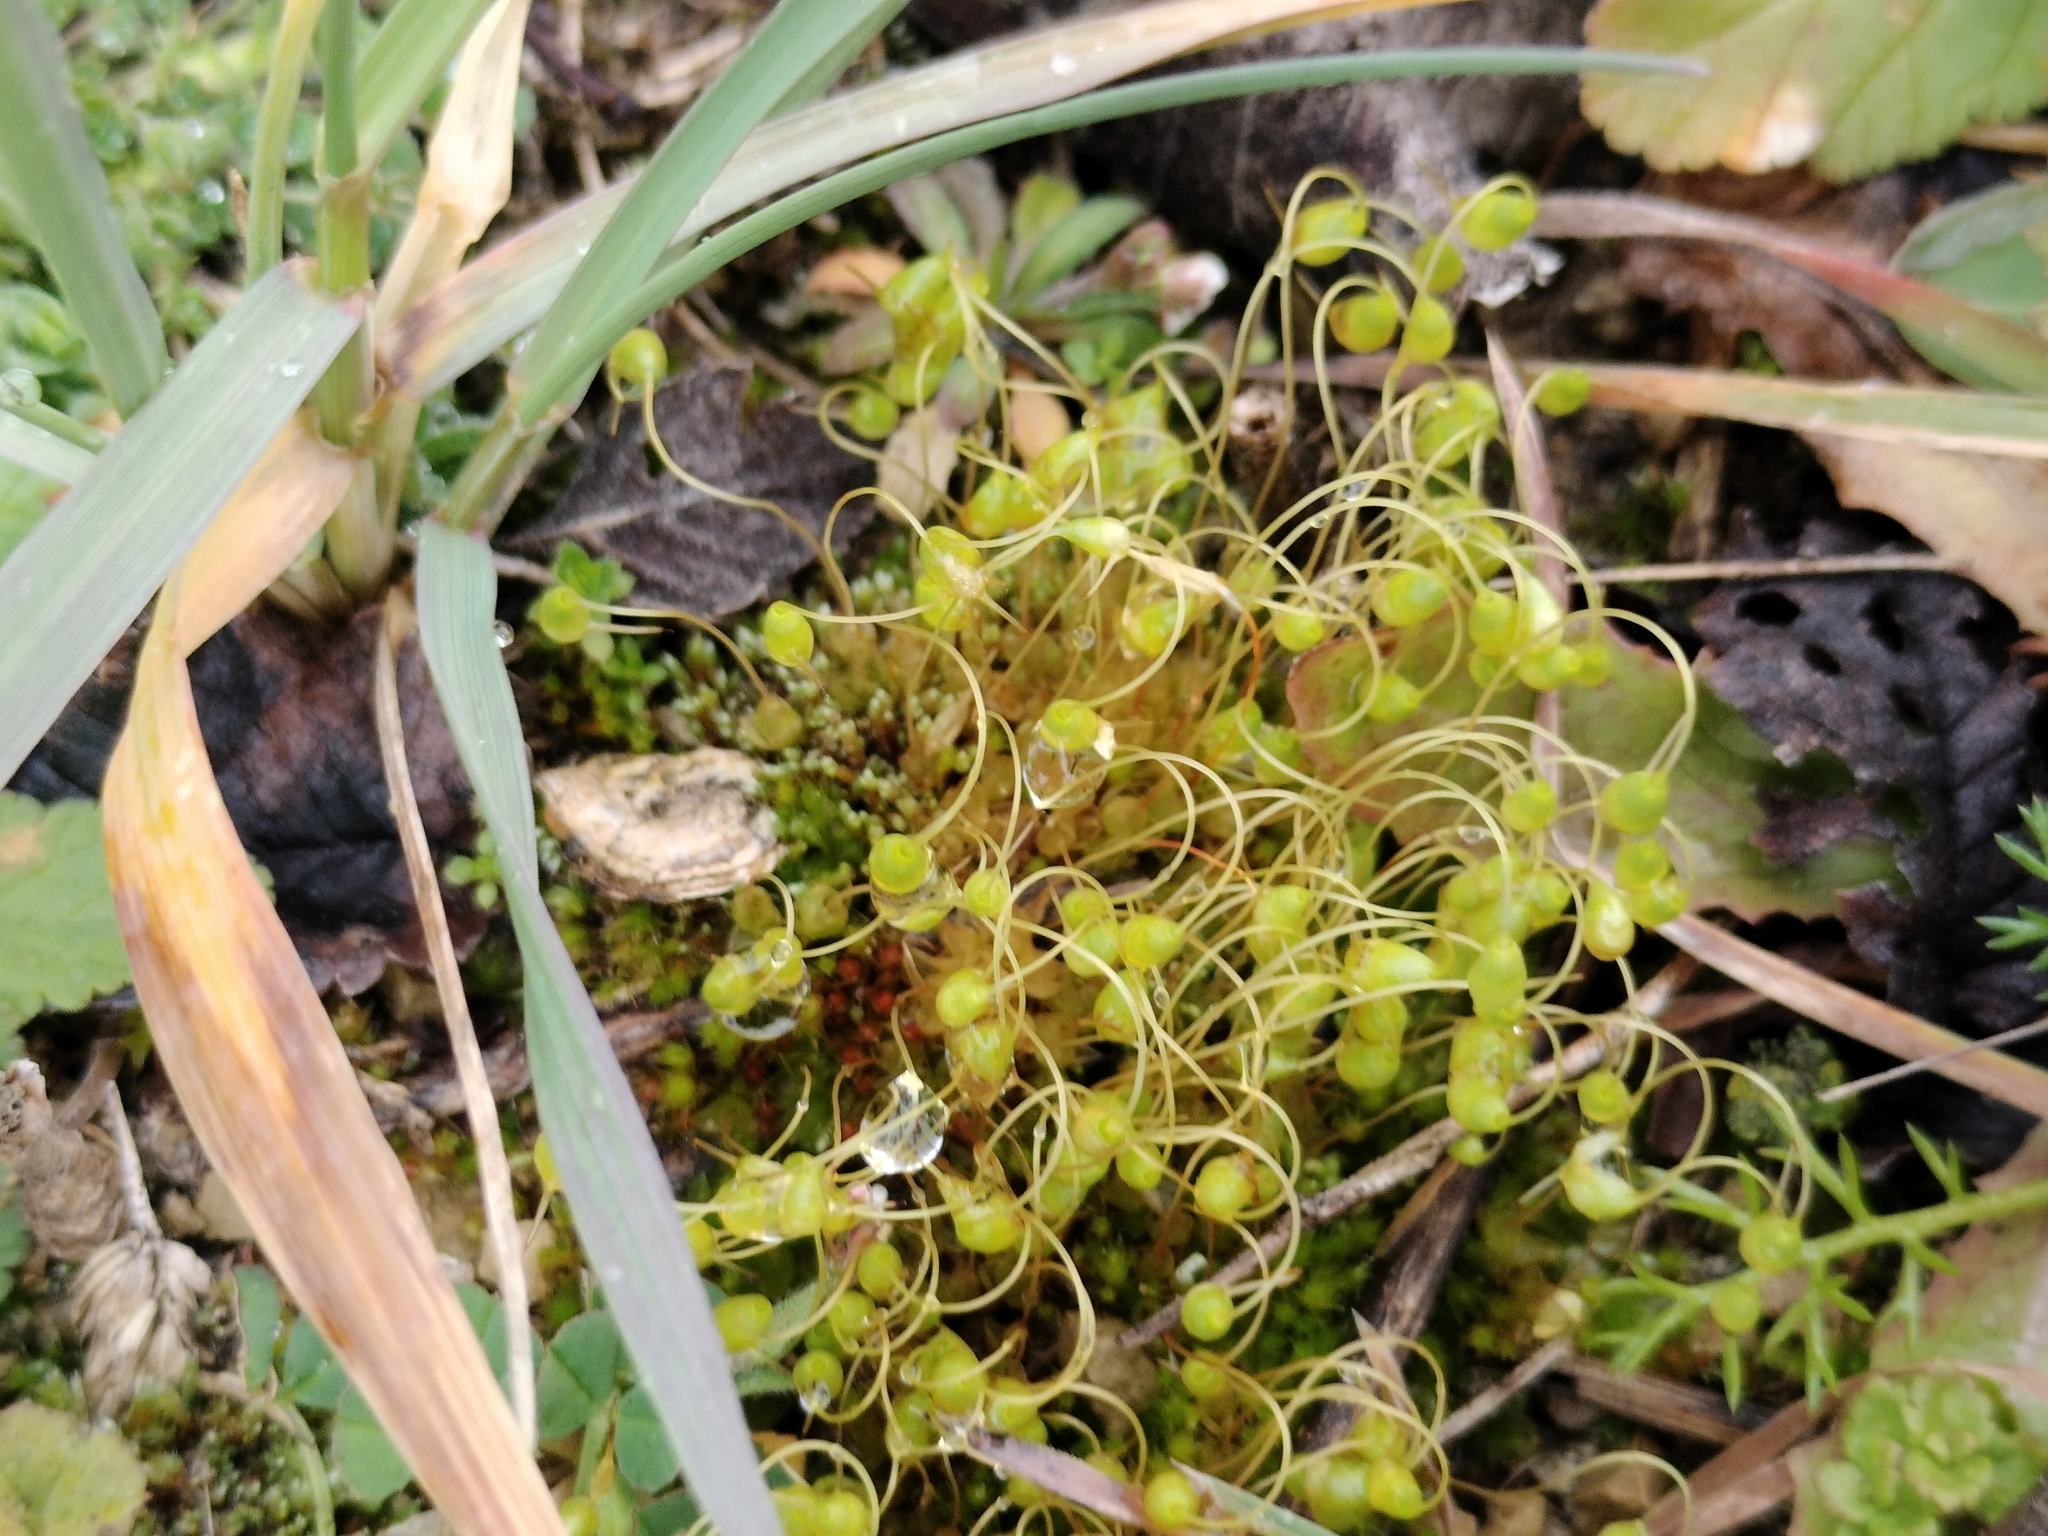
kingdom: Plantae
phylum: Bryophyta
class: Bryopsida
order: Funariales
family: Funariaceae
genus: Funaria
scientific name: Funaria hygrometrica
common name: Common cord moss
